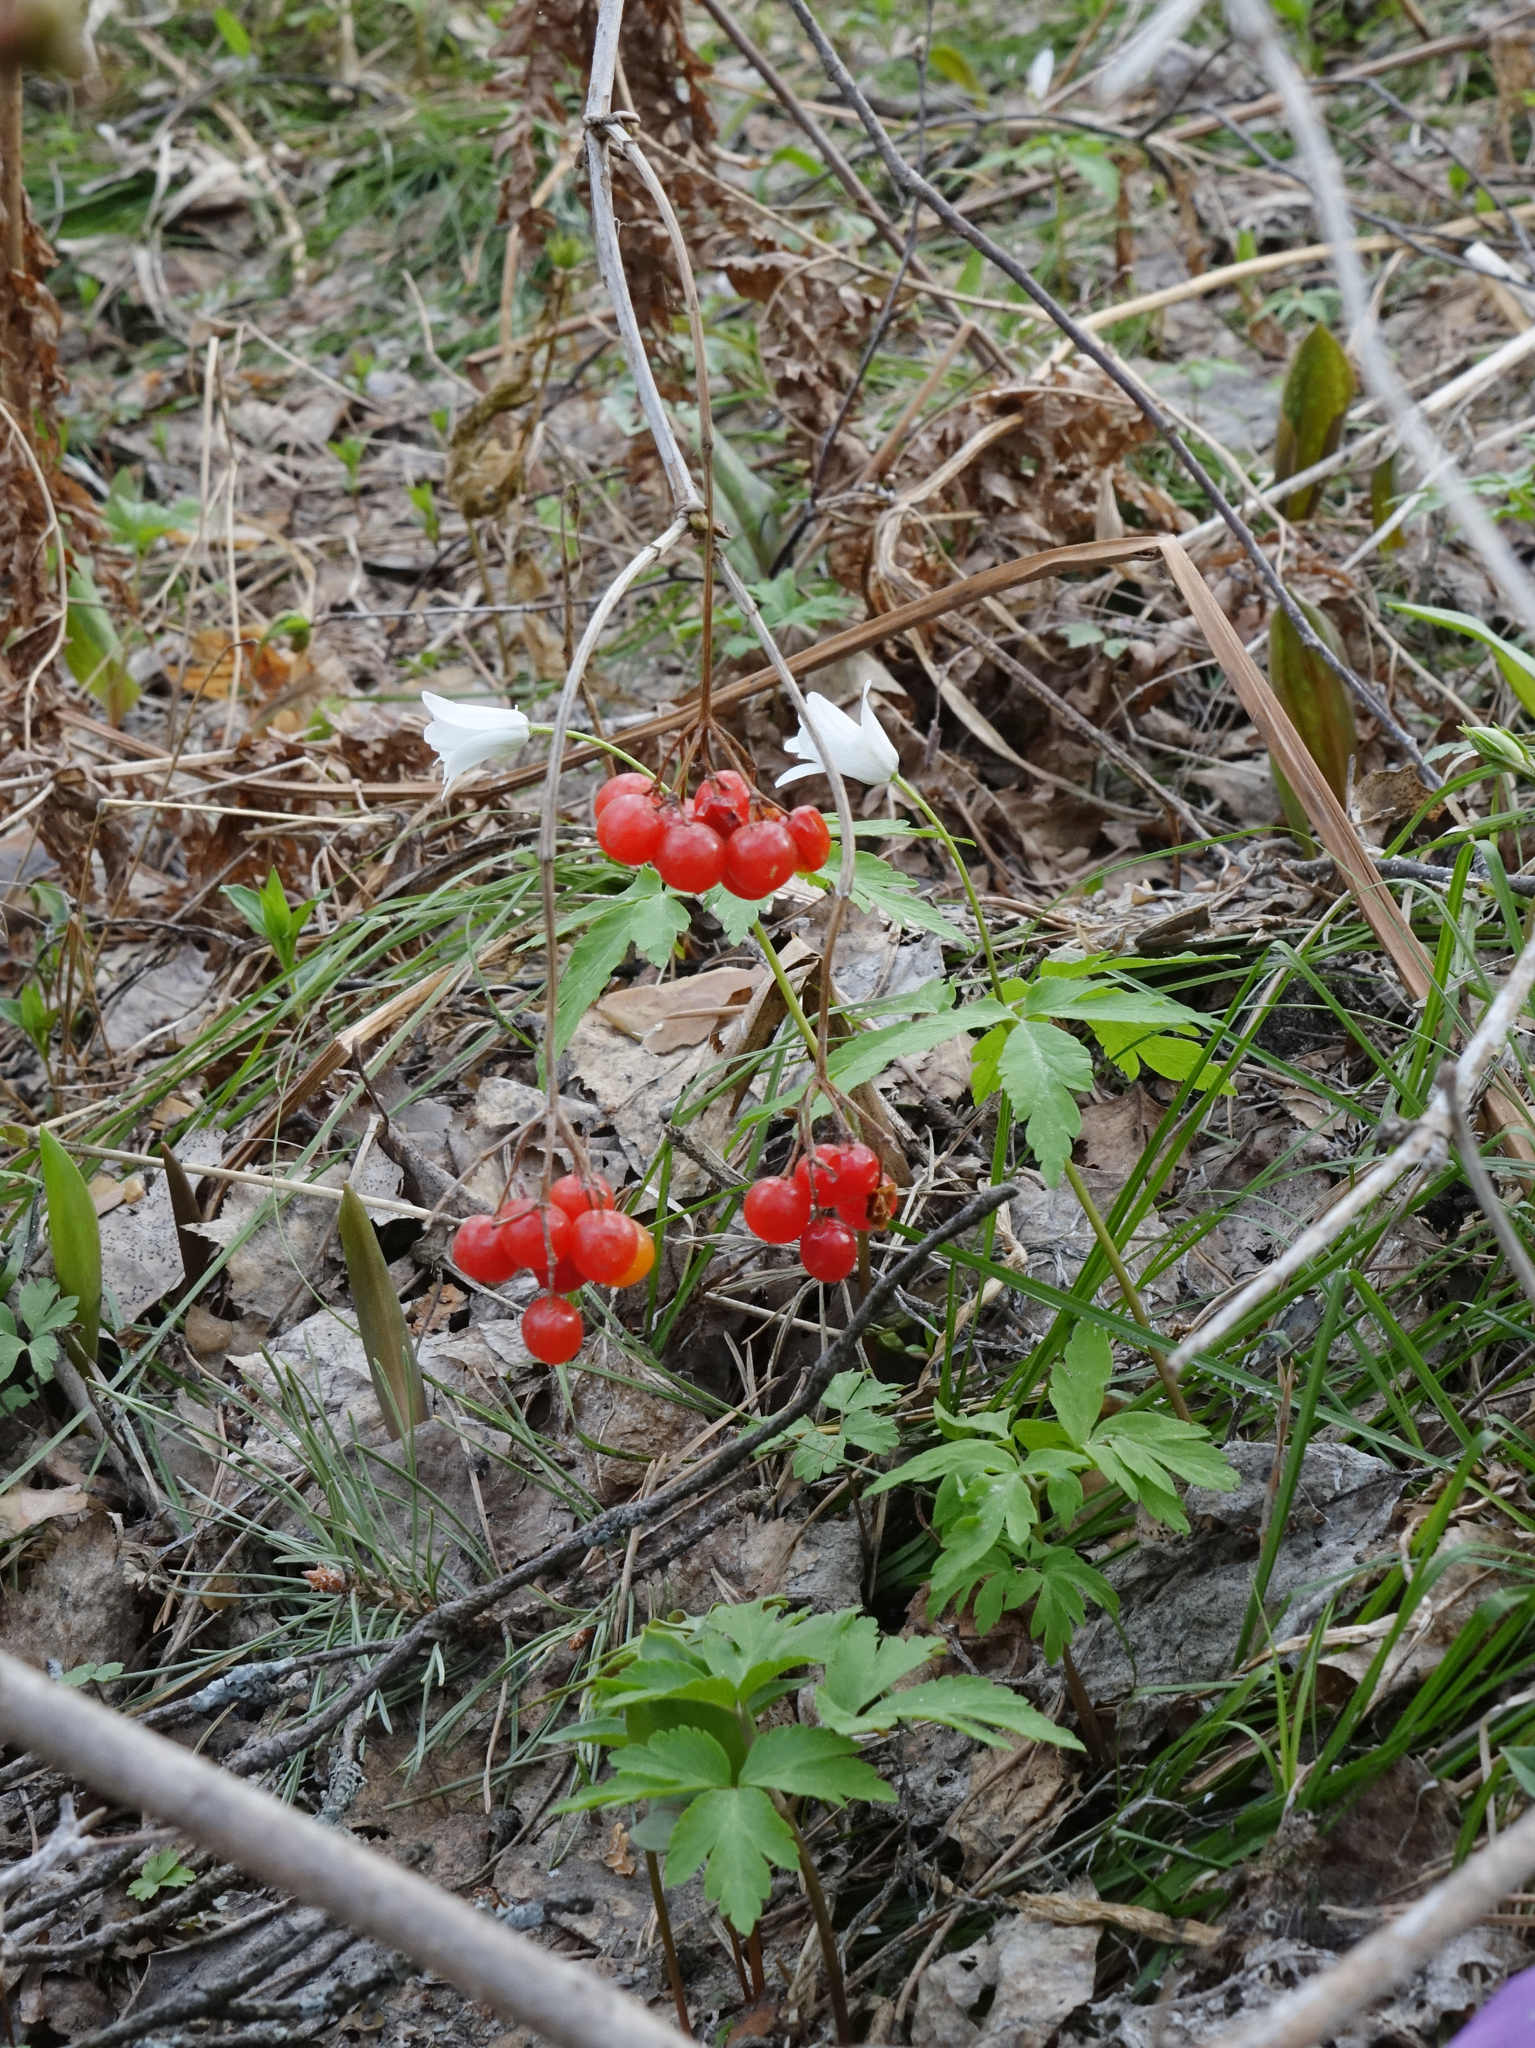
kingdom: Plantae
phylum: Tracheophyta
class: Magnoliopsida
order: Dipsacales
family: Viburnaceae
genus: Viburnum
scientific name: Viburnum opulus
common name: Guelder-rose
